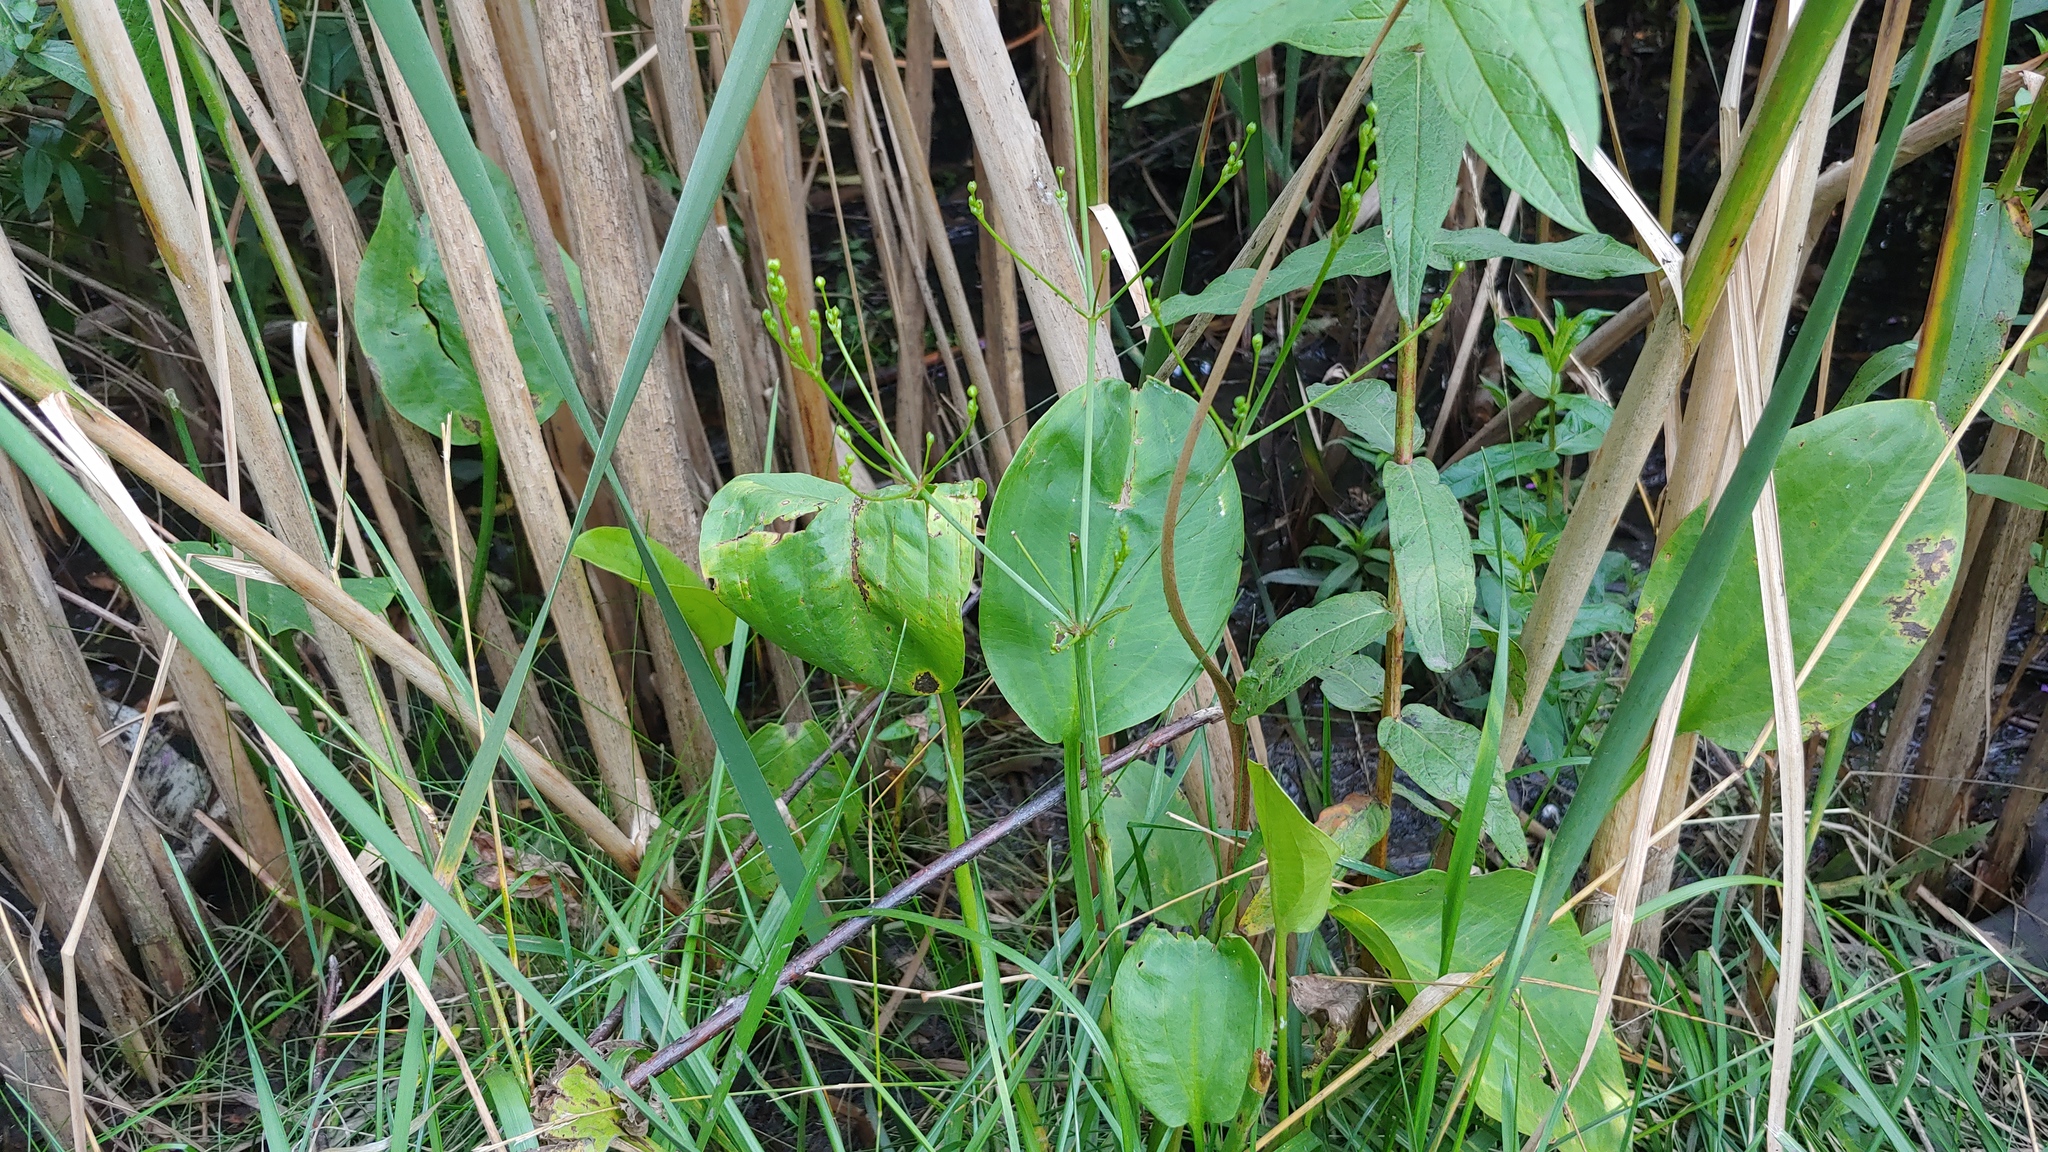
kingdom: Plantae
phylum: Tracheophyta
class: Liliopsida
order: Alismatales
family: Alismataceae
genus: Alisma
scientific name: Alisma
